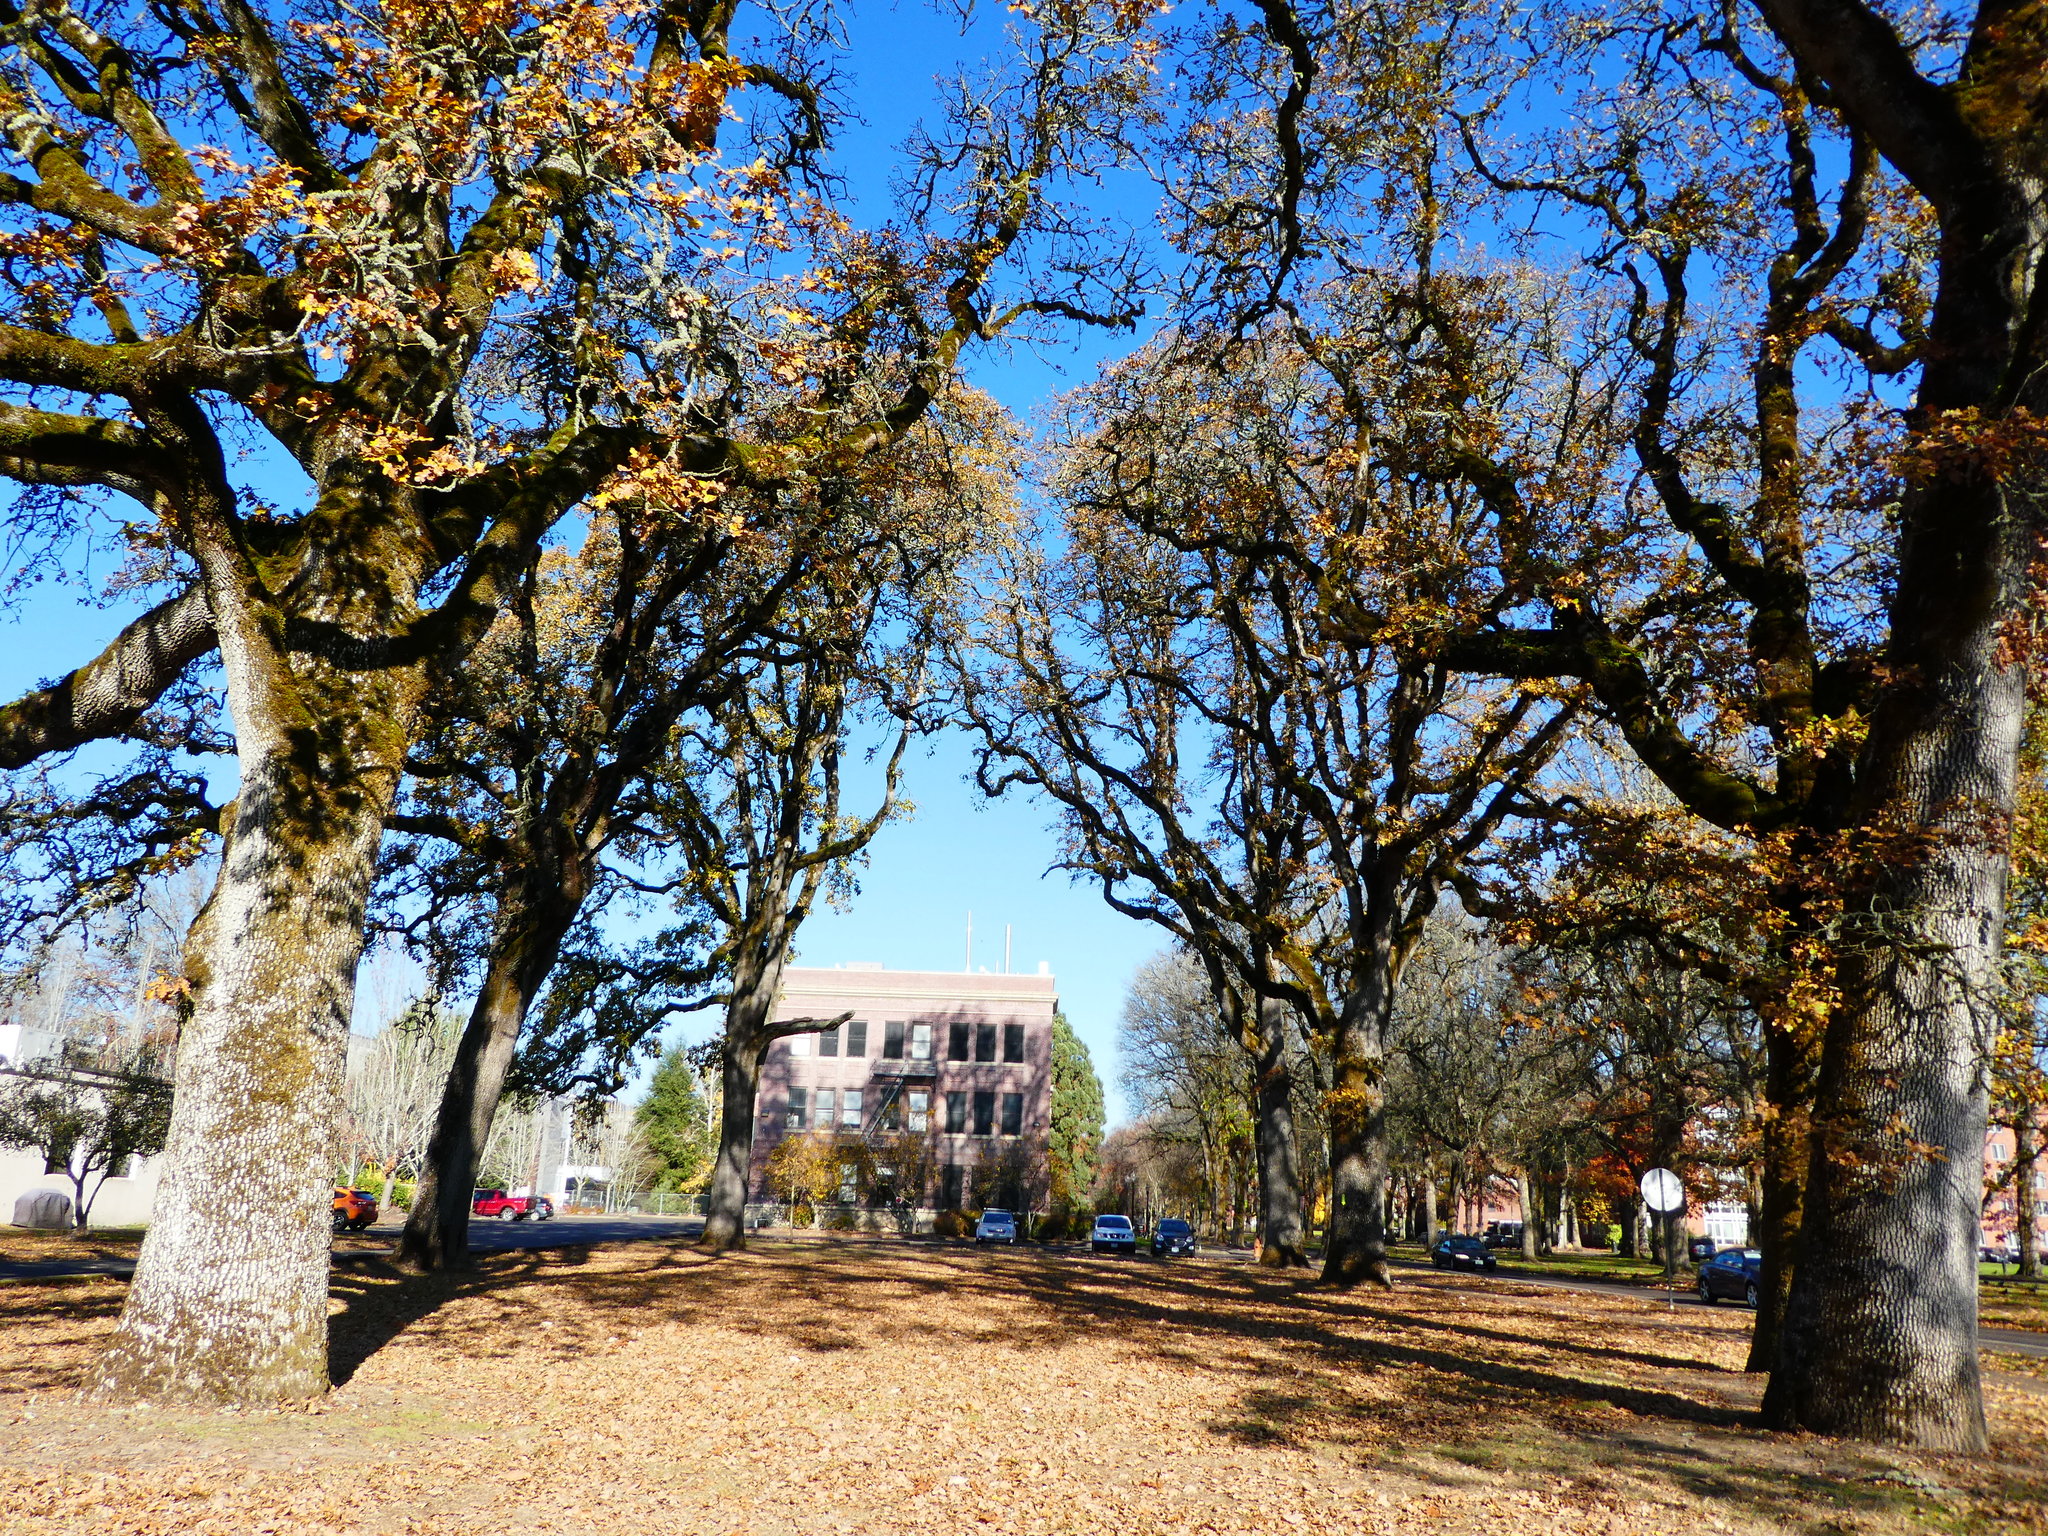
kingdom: Plantae
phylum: Tracheophyta
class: Magnoliopsida
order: Fagales
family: Fagaceae
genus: Quercus
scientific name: Quercus garryana
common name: Garry oak
